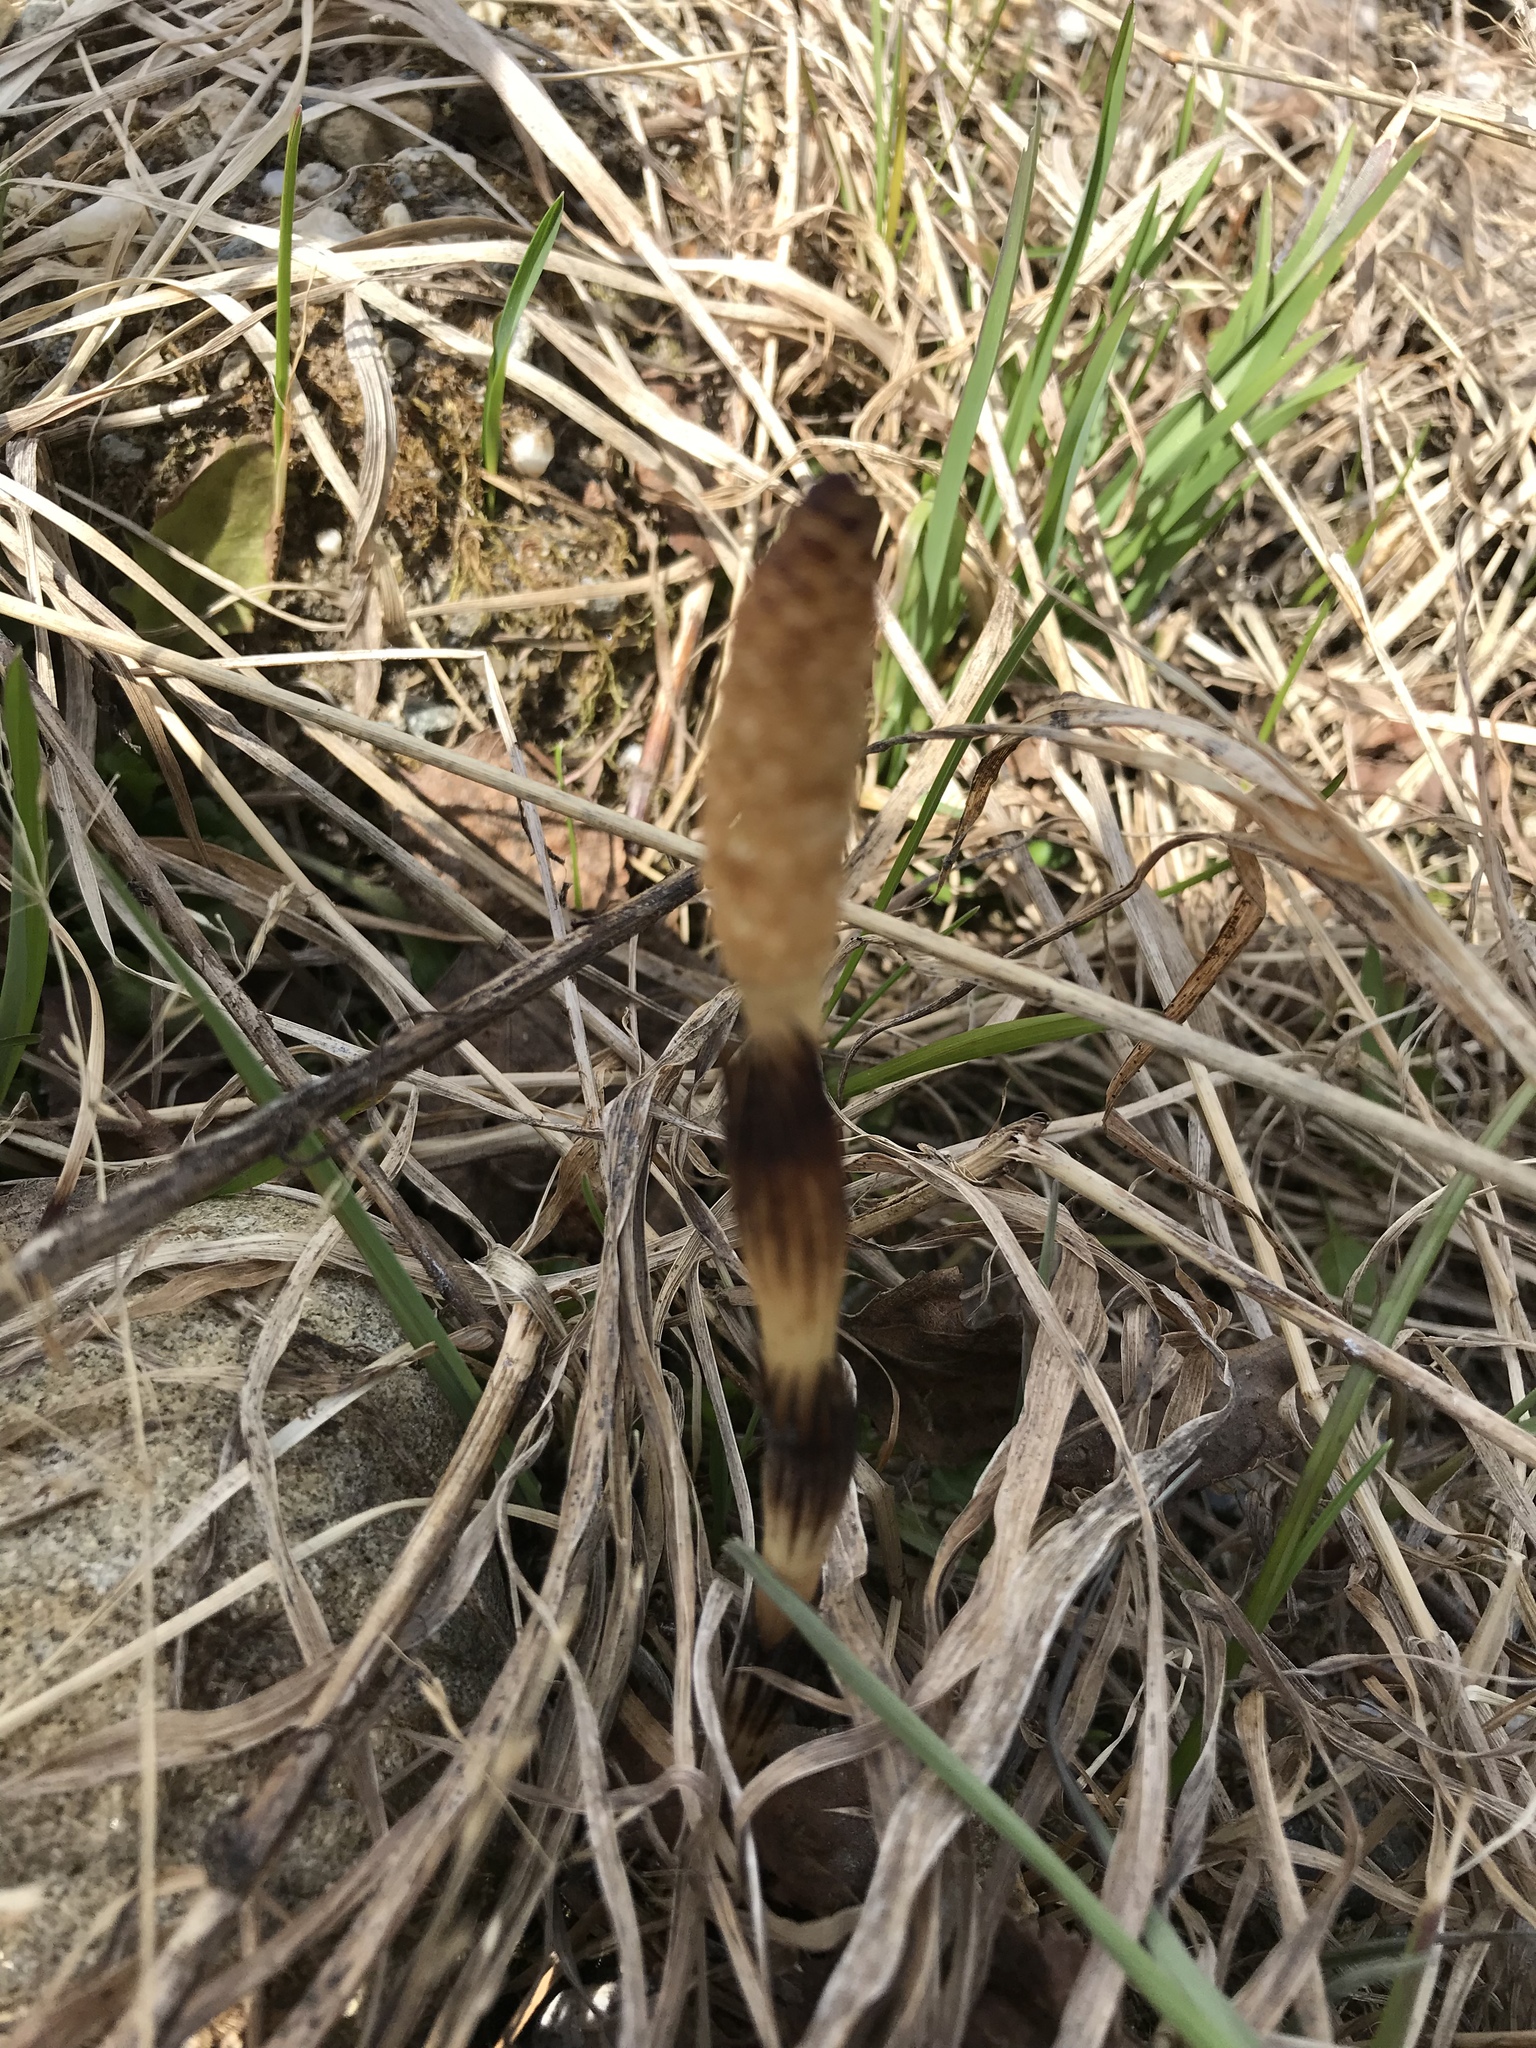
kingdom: Plantae
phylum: Tracheophyta
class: Polypodiopsida
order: Equisetales
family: Equisetaceae
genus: Equisetum
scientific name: Equisetum arvense
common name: Field horsetail
